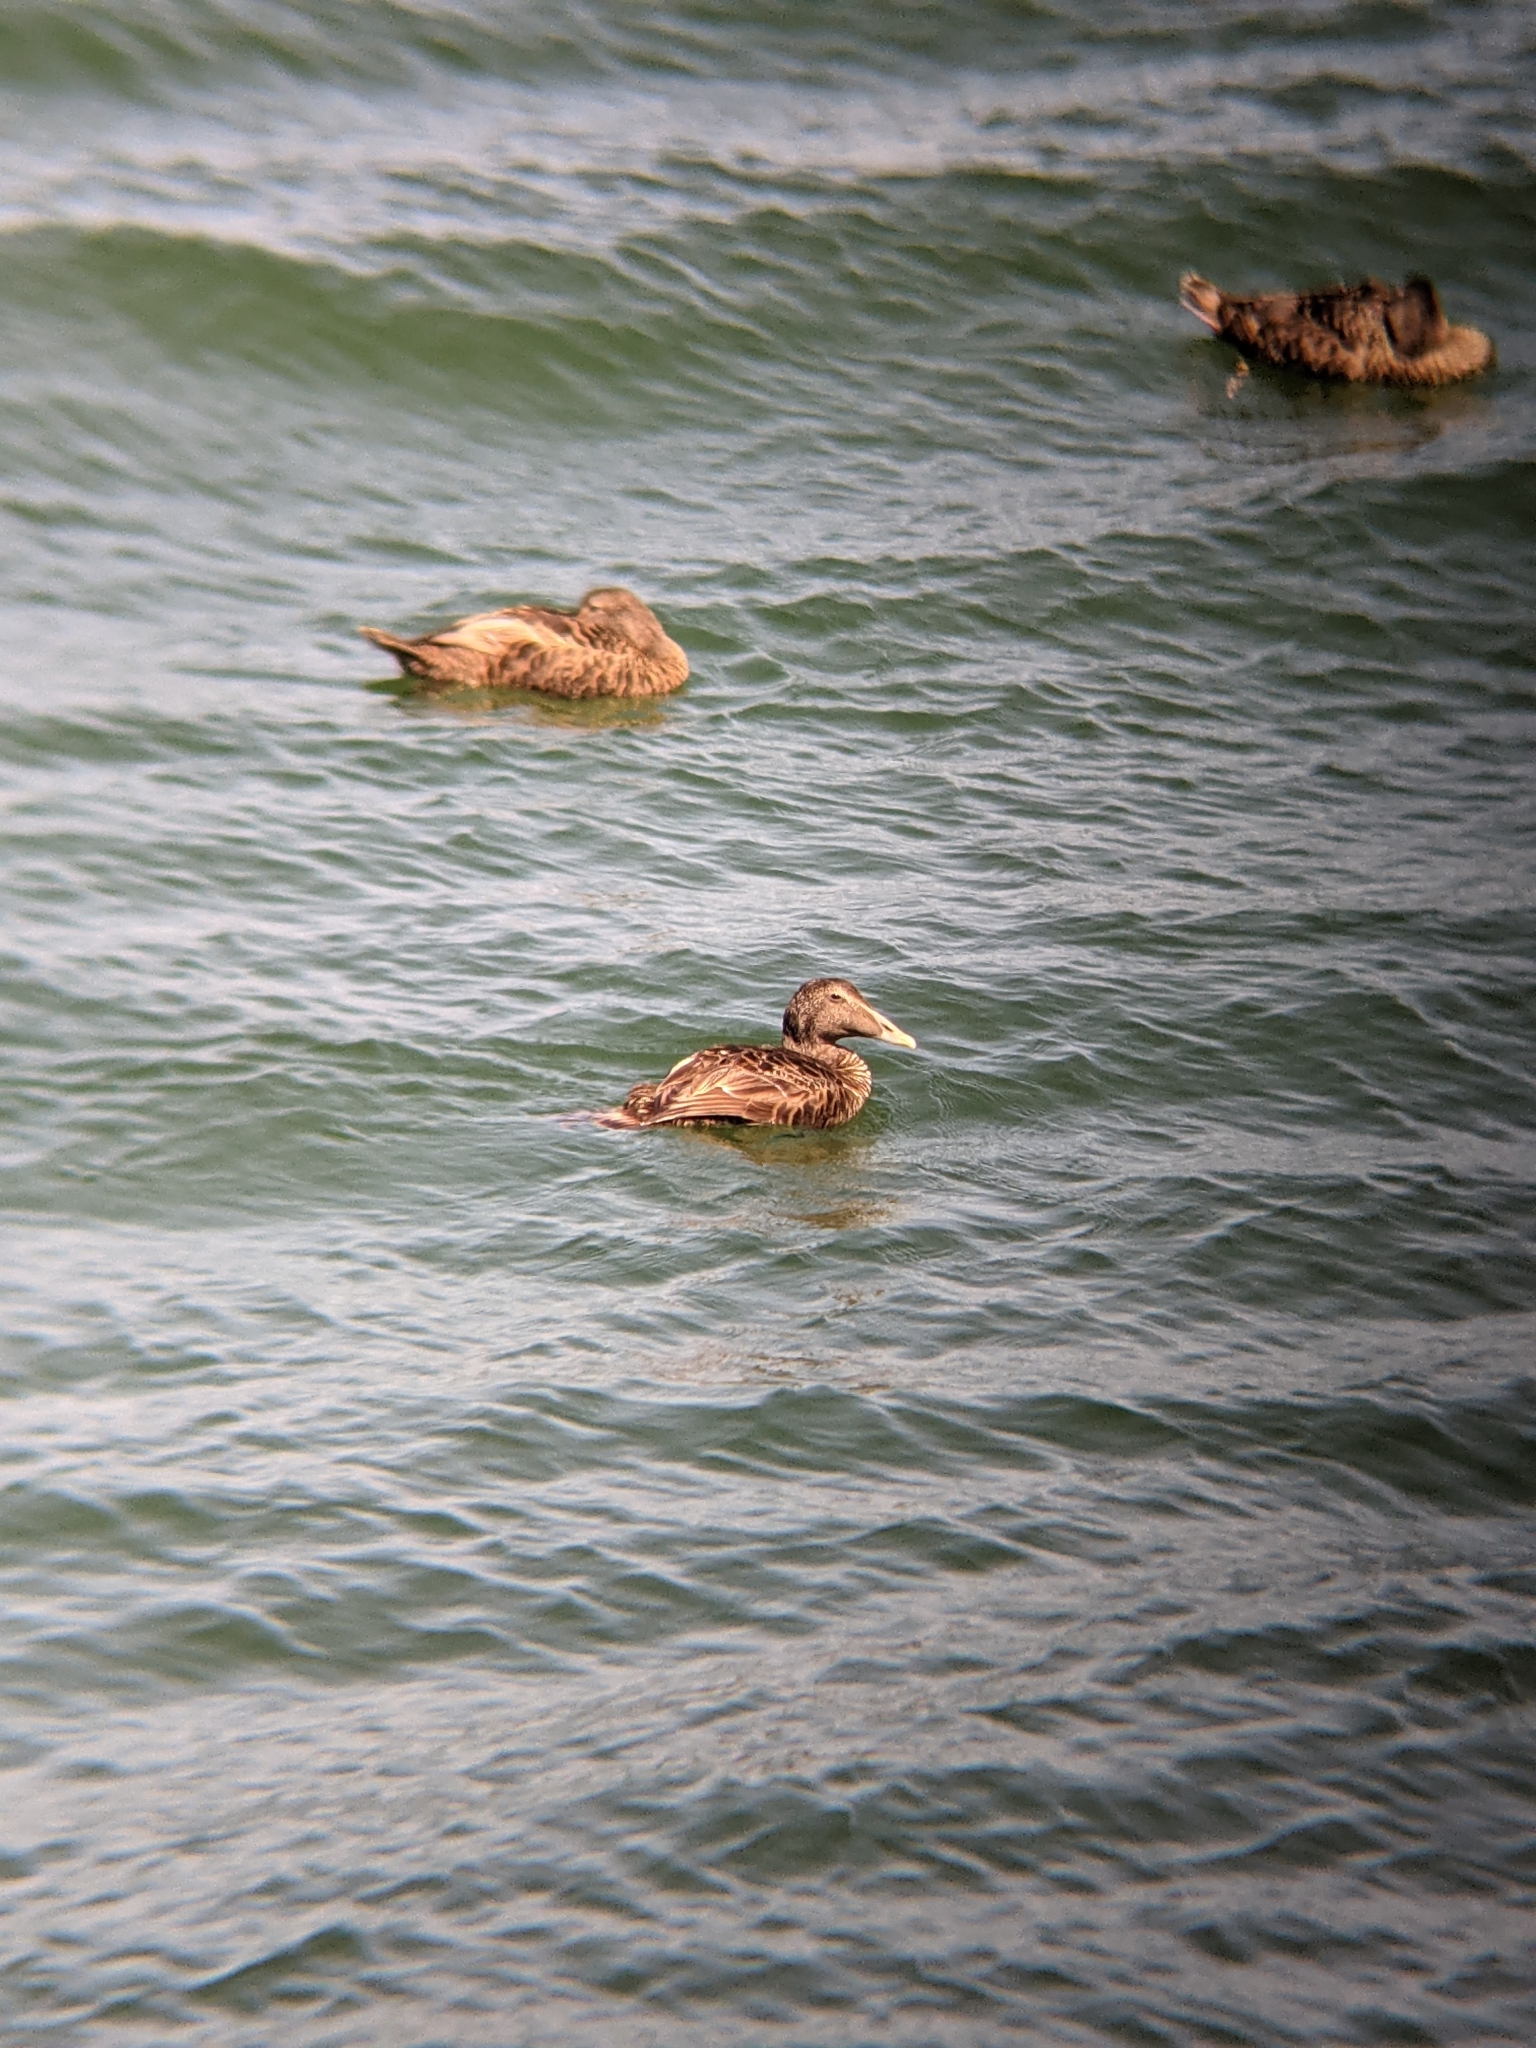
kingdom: Animalia
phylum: Chordata
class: Aves
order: Anseriformes
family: Anatidae
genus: Somateria
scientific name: Somateria mollissima
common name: Common eider
